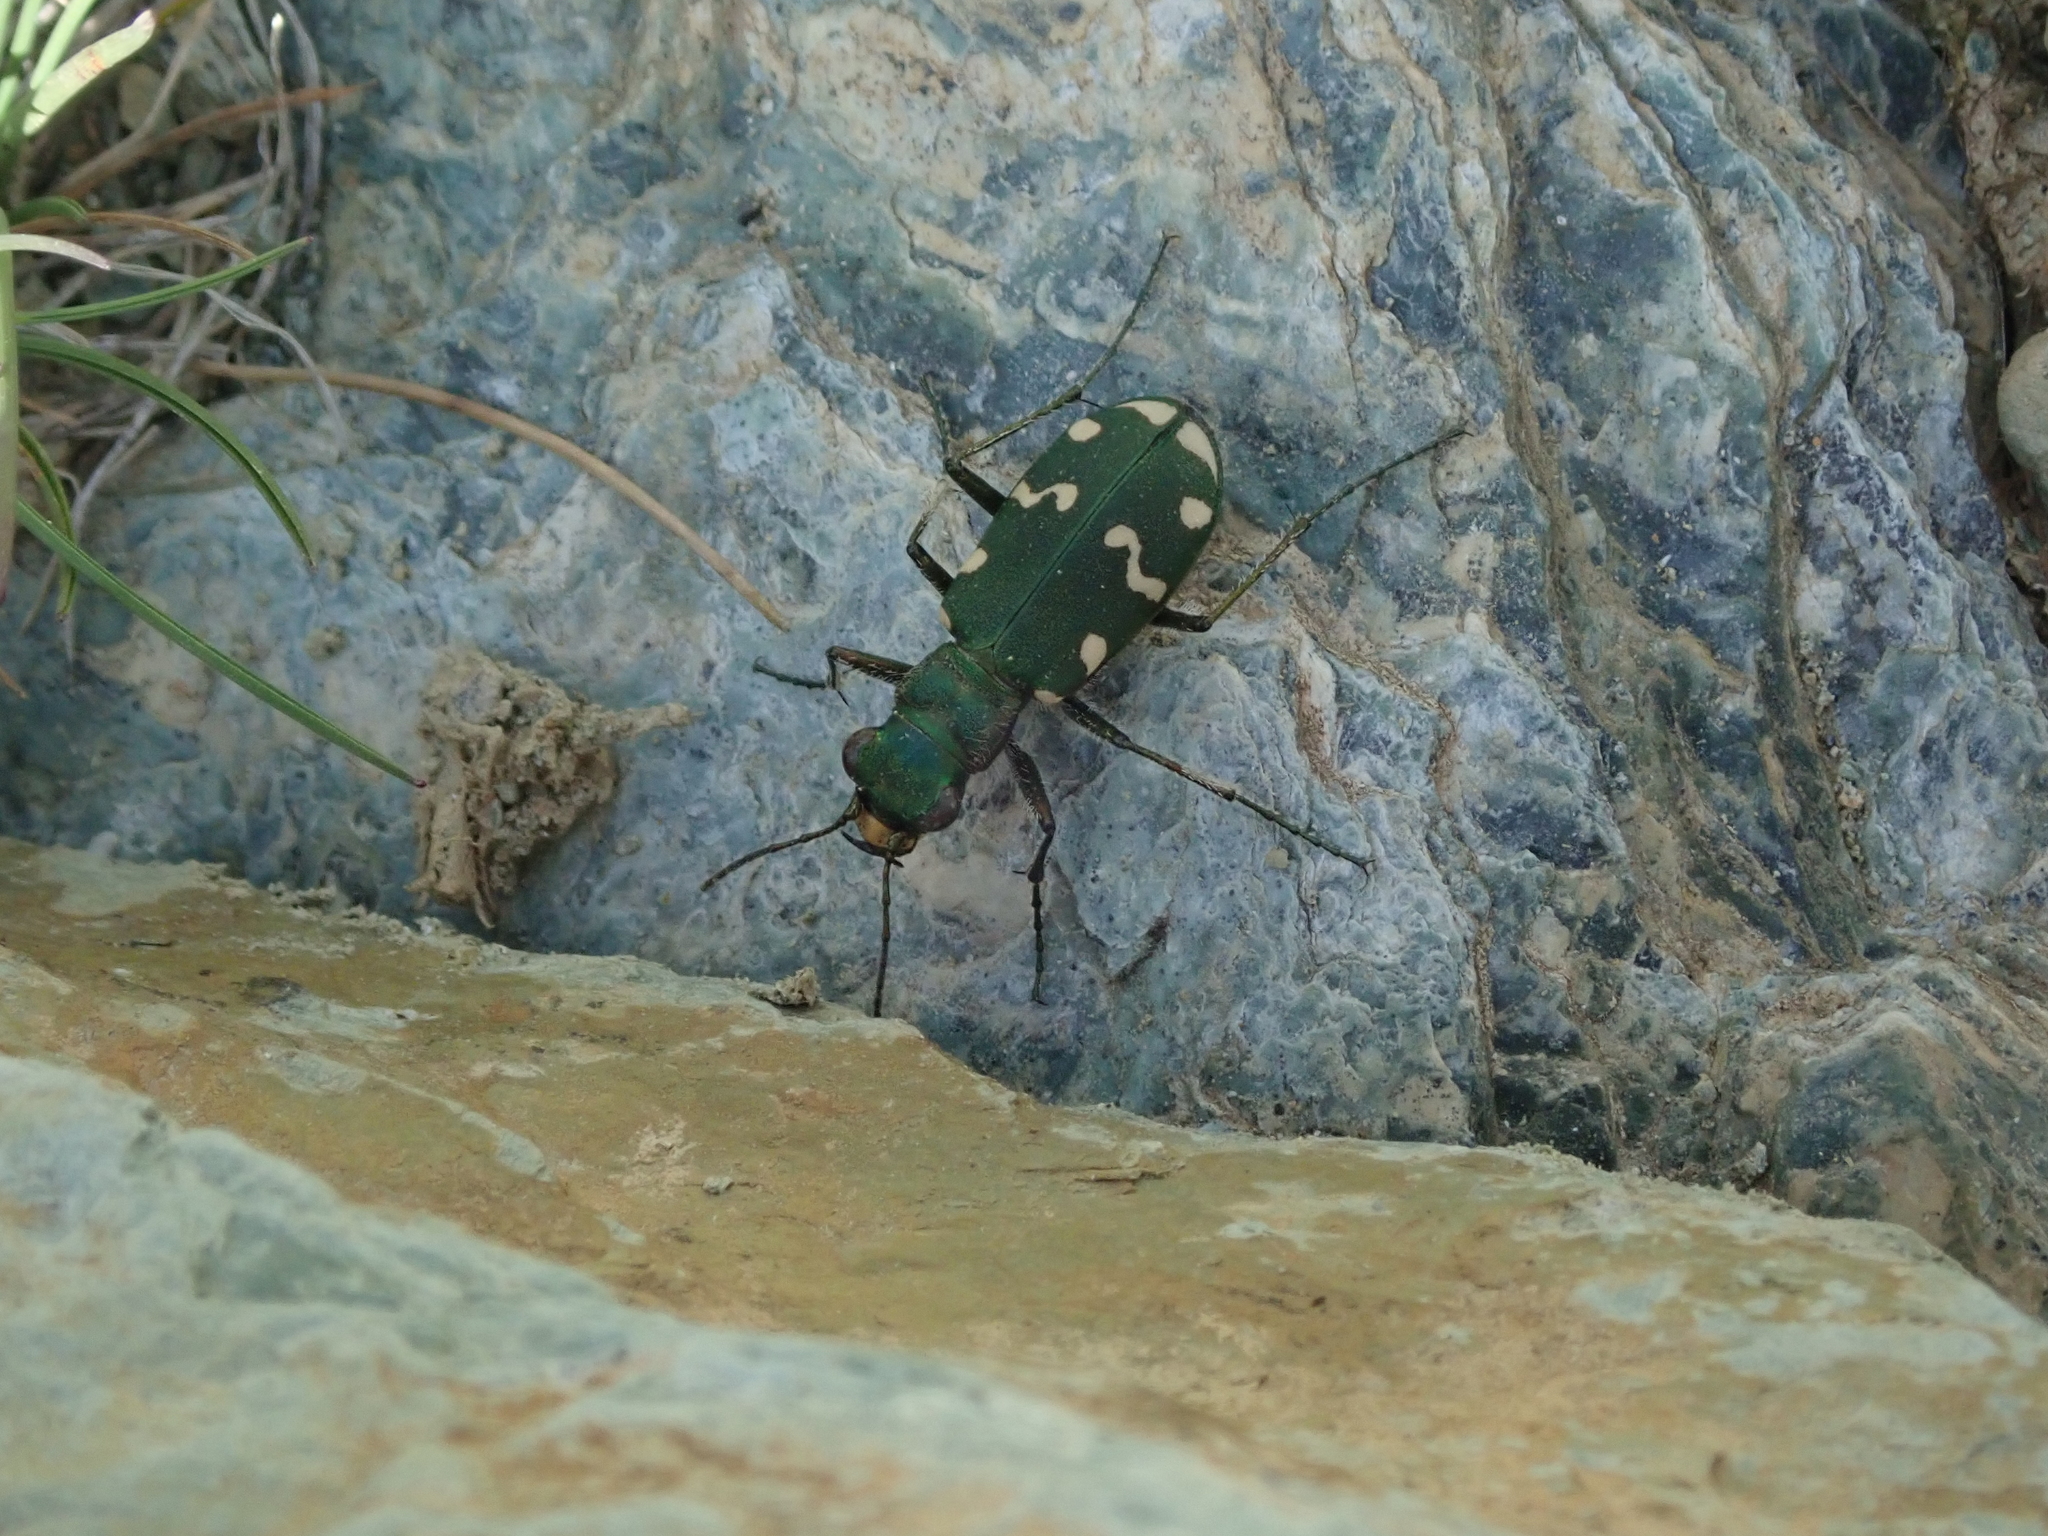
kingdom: Animalia
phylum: Arthropoda
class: Insecta
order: Coleoptera
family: Carabidae
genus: Cicindela
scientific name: Cicindela gallica
